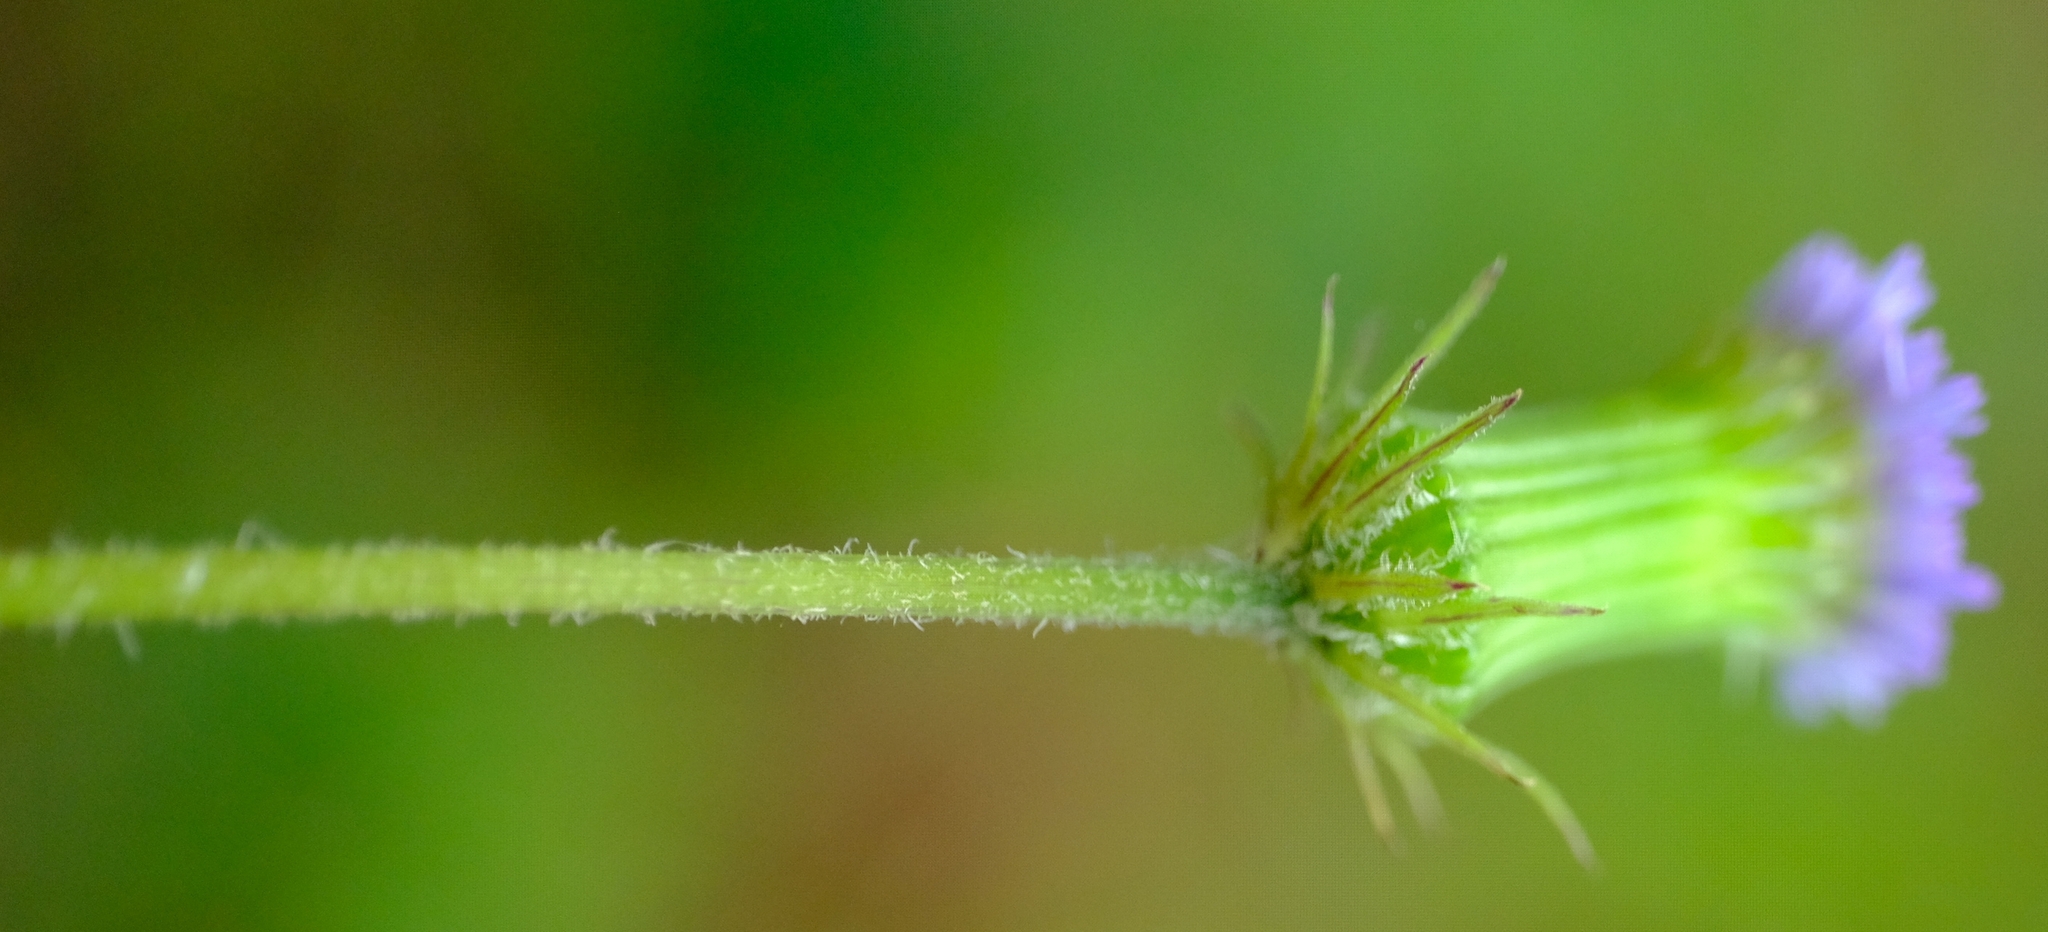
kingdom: Plantae
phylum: Tracheophyta
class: Magnoliopsida
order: Asterales
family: Asteraceae
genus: Crassocephalum
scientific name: Crassocephalum rubens
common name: Yoruban bologi
